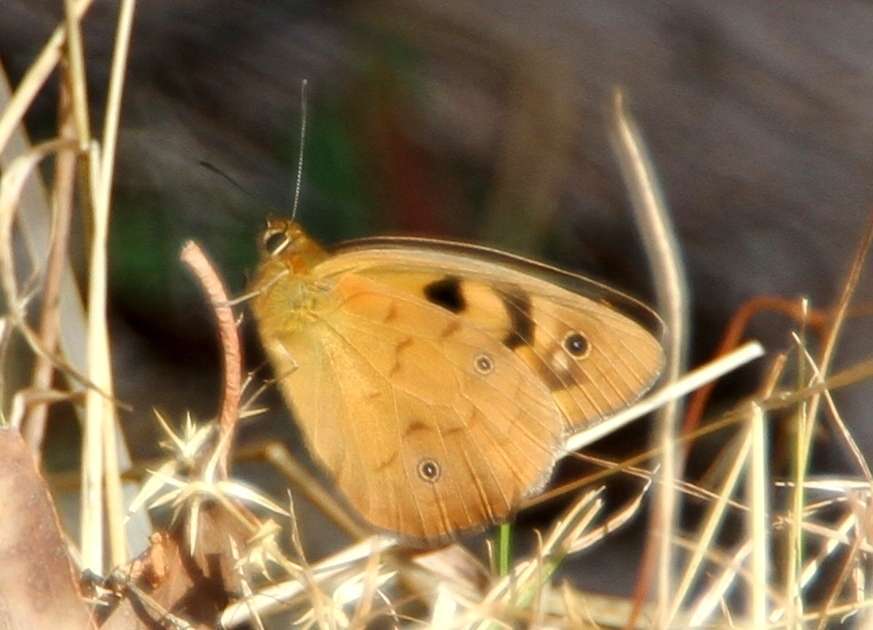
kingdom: Animalia
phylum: Arthropoda
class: Insecta
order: Lepidoptera
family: Nymphalidae
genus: Heteronympha
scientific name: Heteronympha penelope
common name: Shouldered brown
